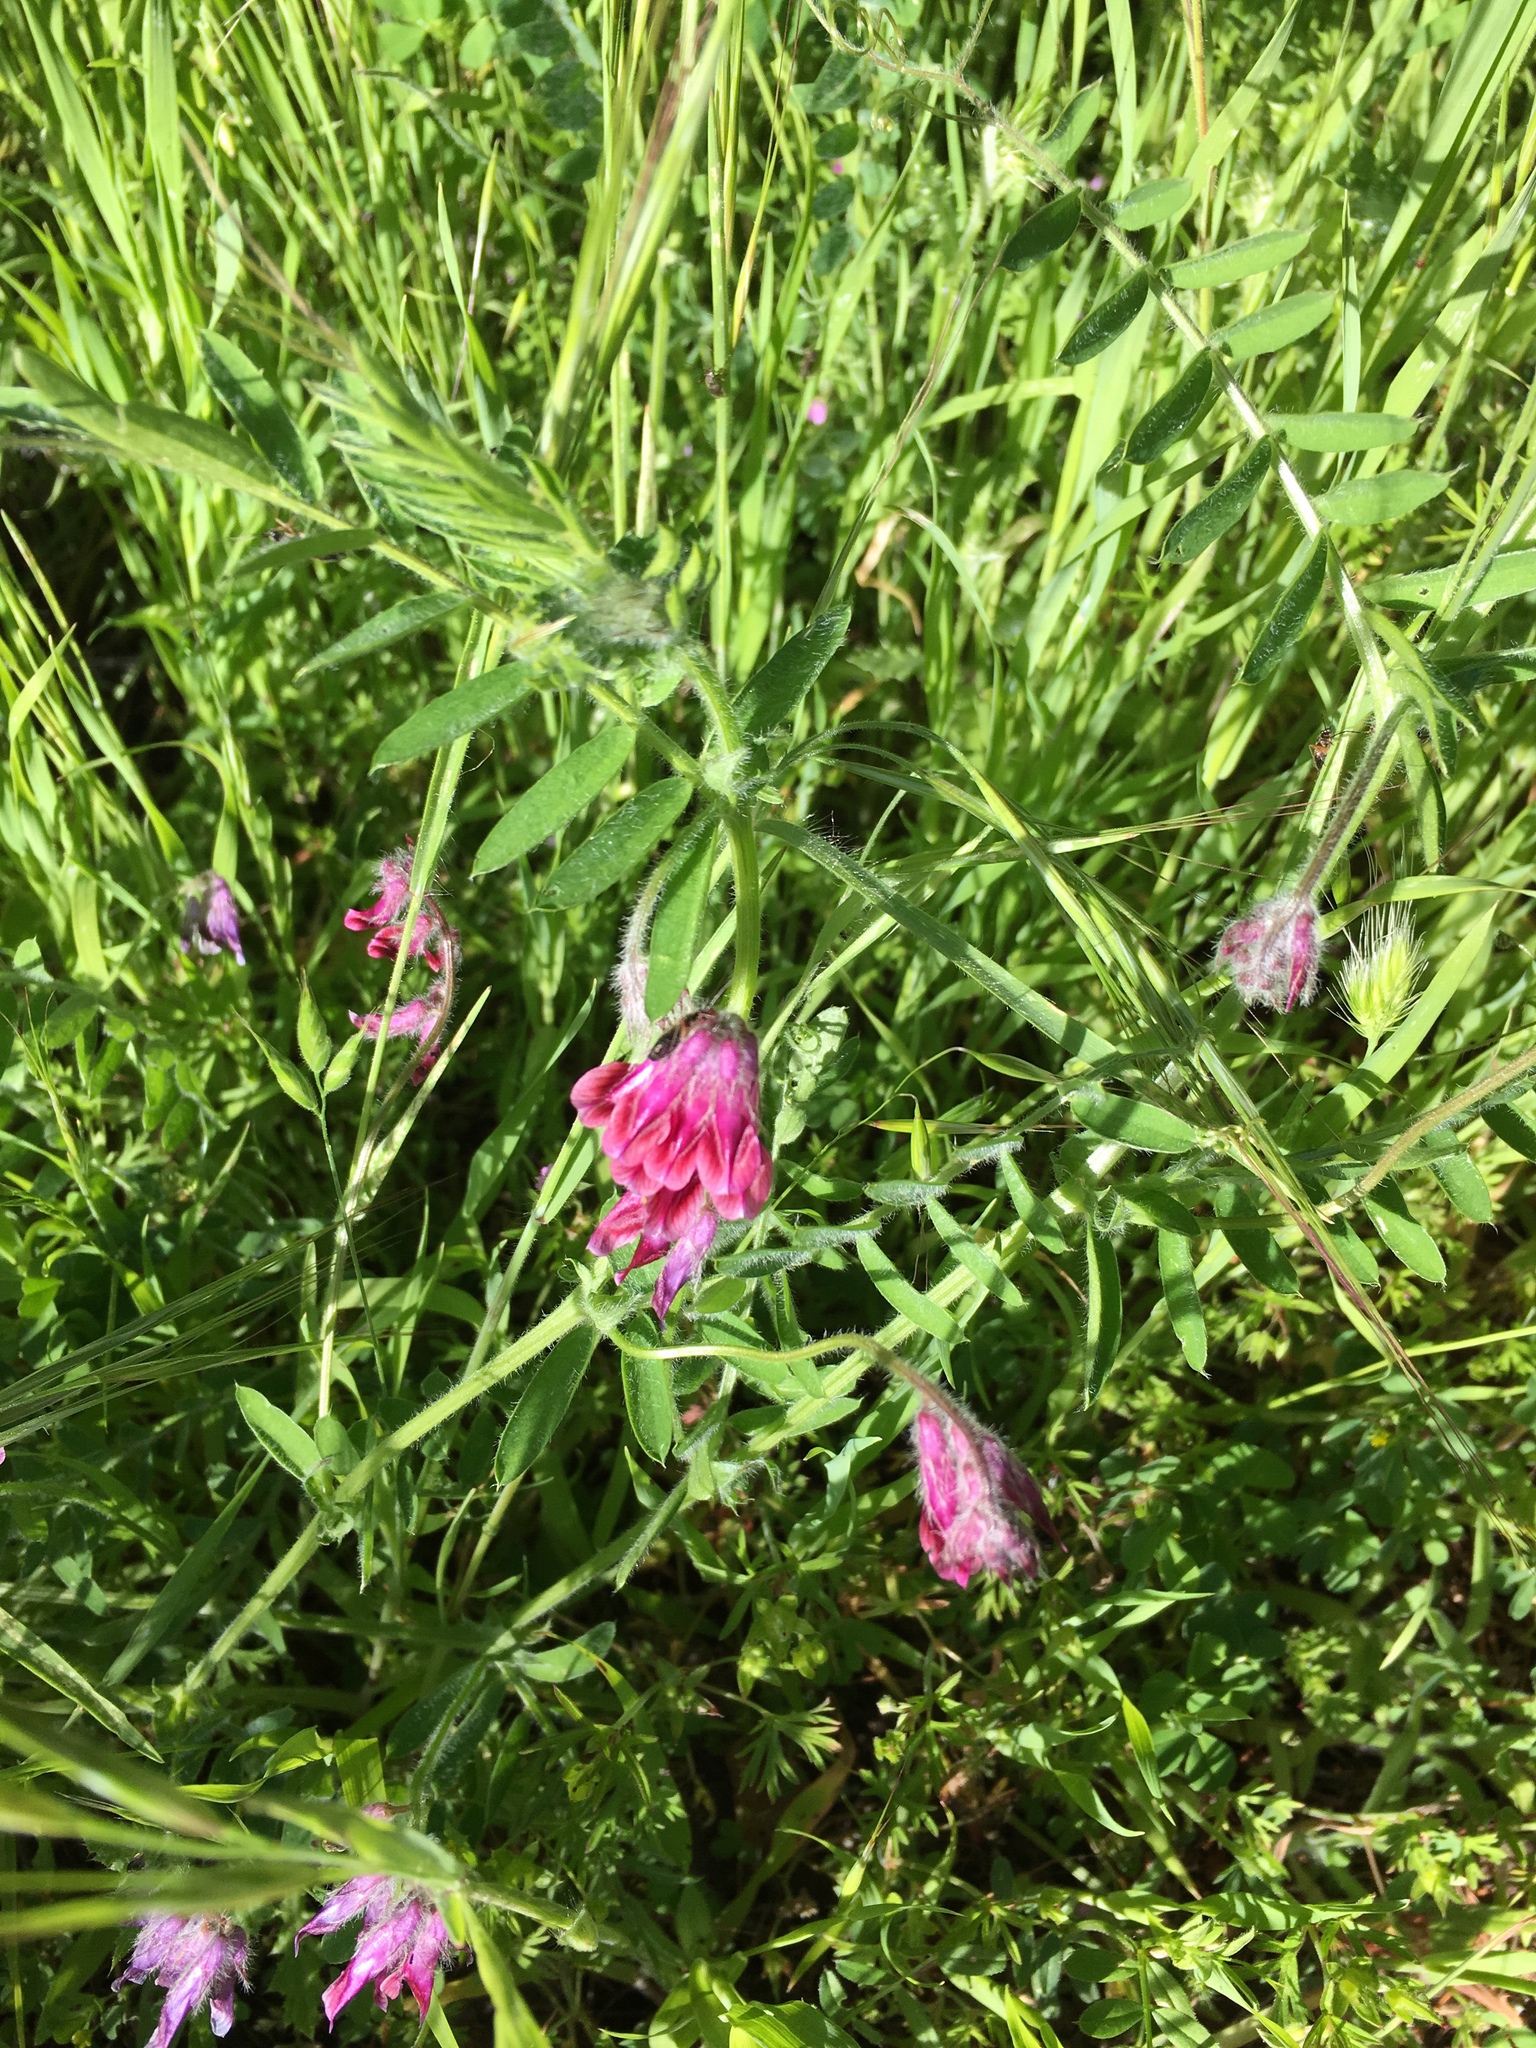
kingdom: Plantae
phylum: Tracheophyta
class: Magnoliopsida
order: Fabales
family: Fabaceae
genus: Vicia
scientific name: Vicia benghalensis
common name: Purple vetch
